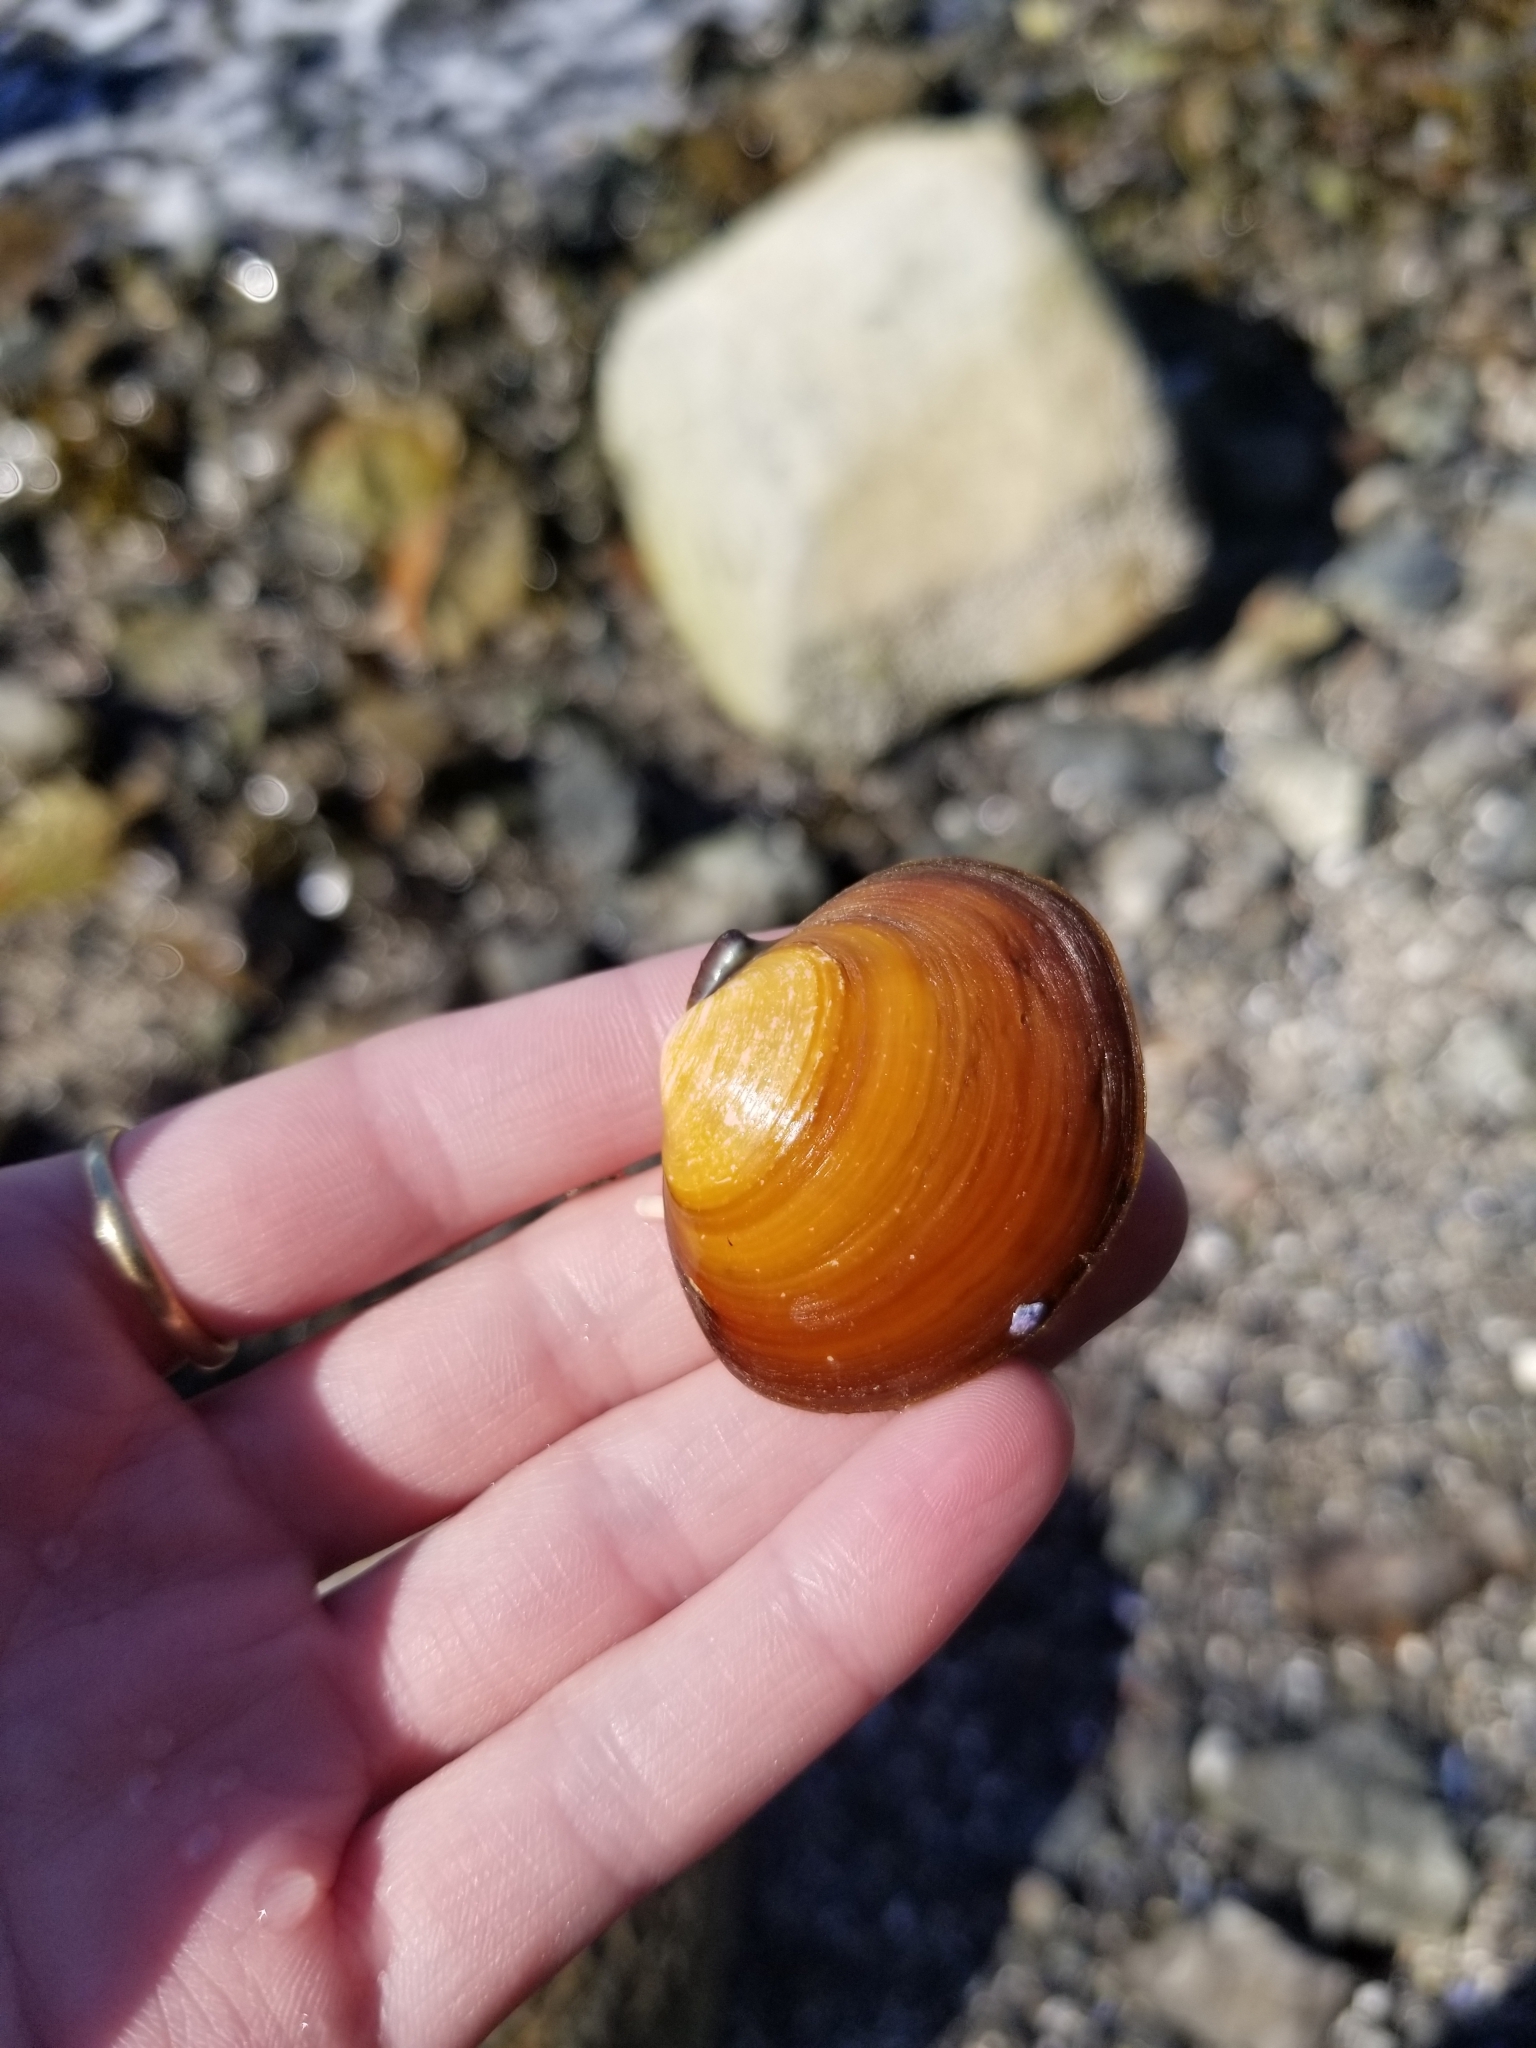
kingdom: Animalia
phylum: Mollusca
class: Bivalvia
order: Cardiida
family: Psammobiidae
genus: Nuttallia
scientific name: Nuttallia obscurata
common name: Purple mahogany-clam
